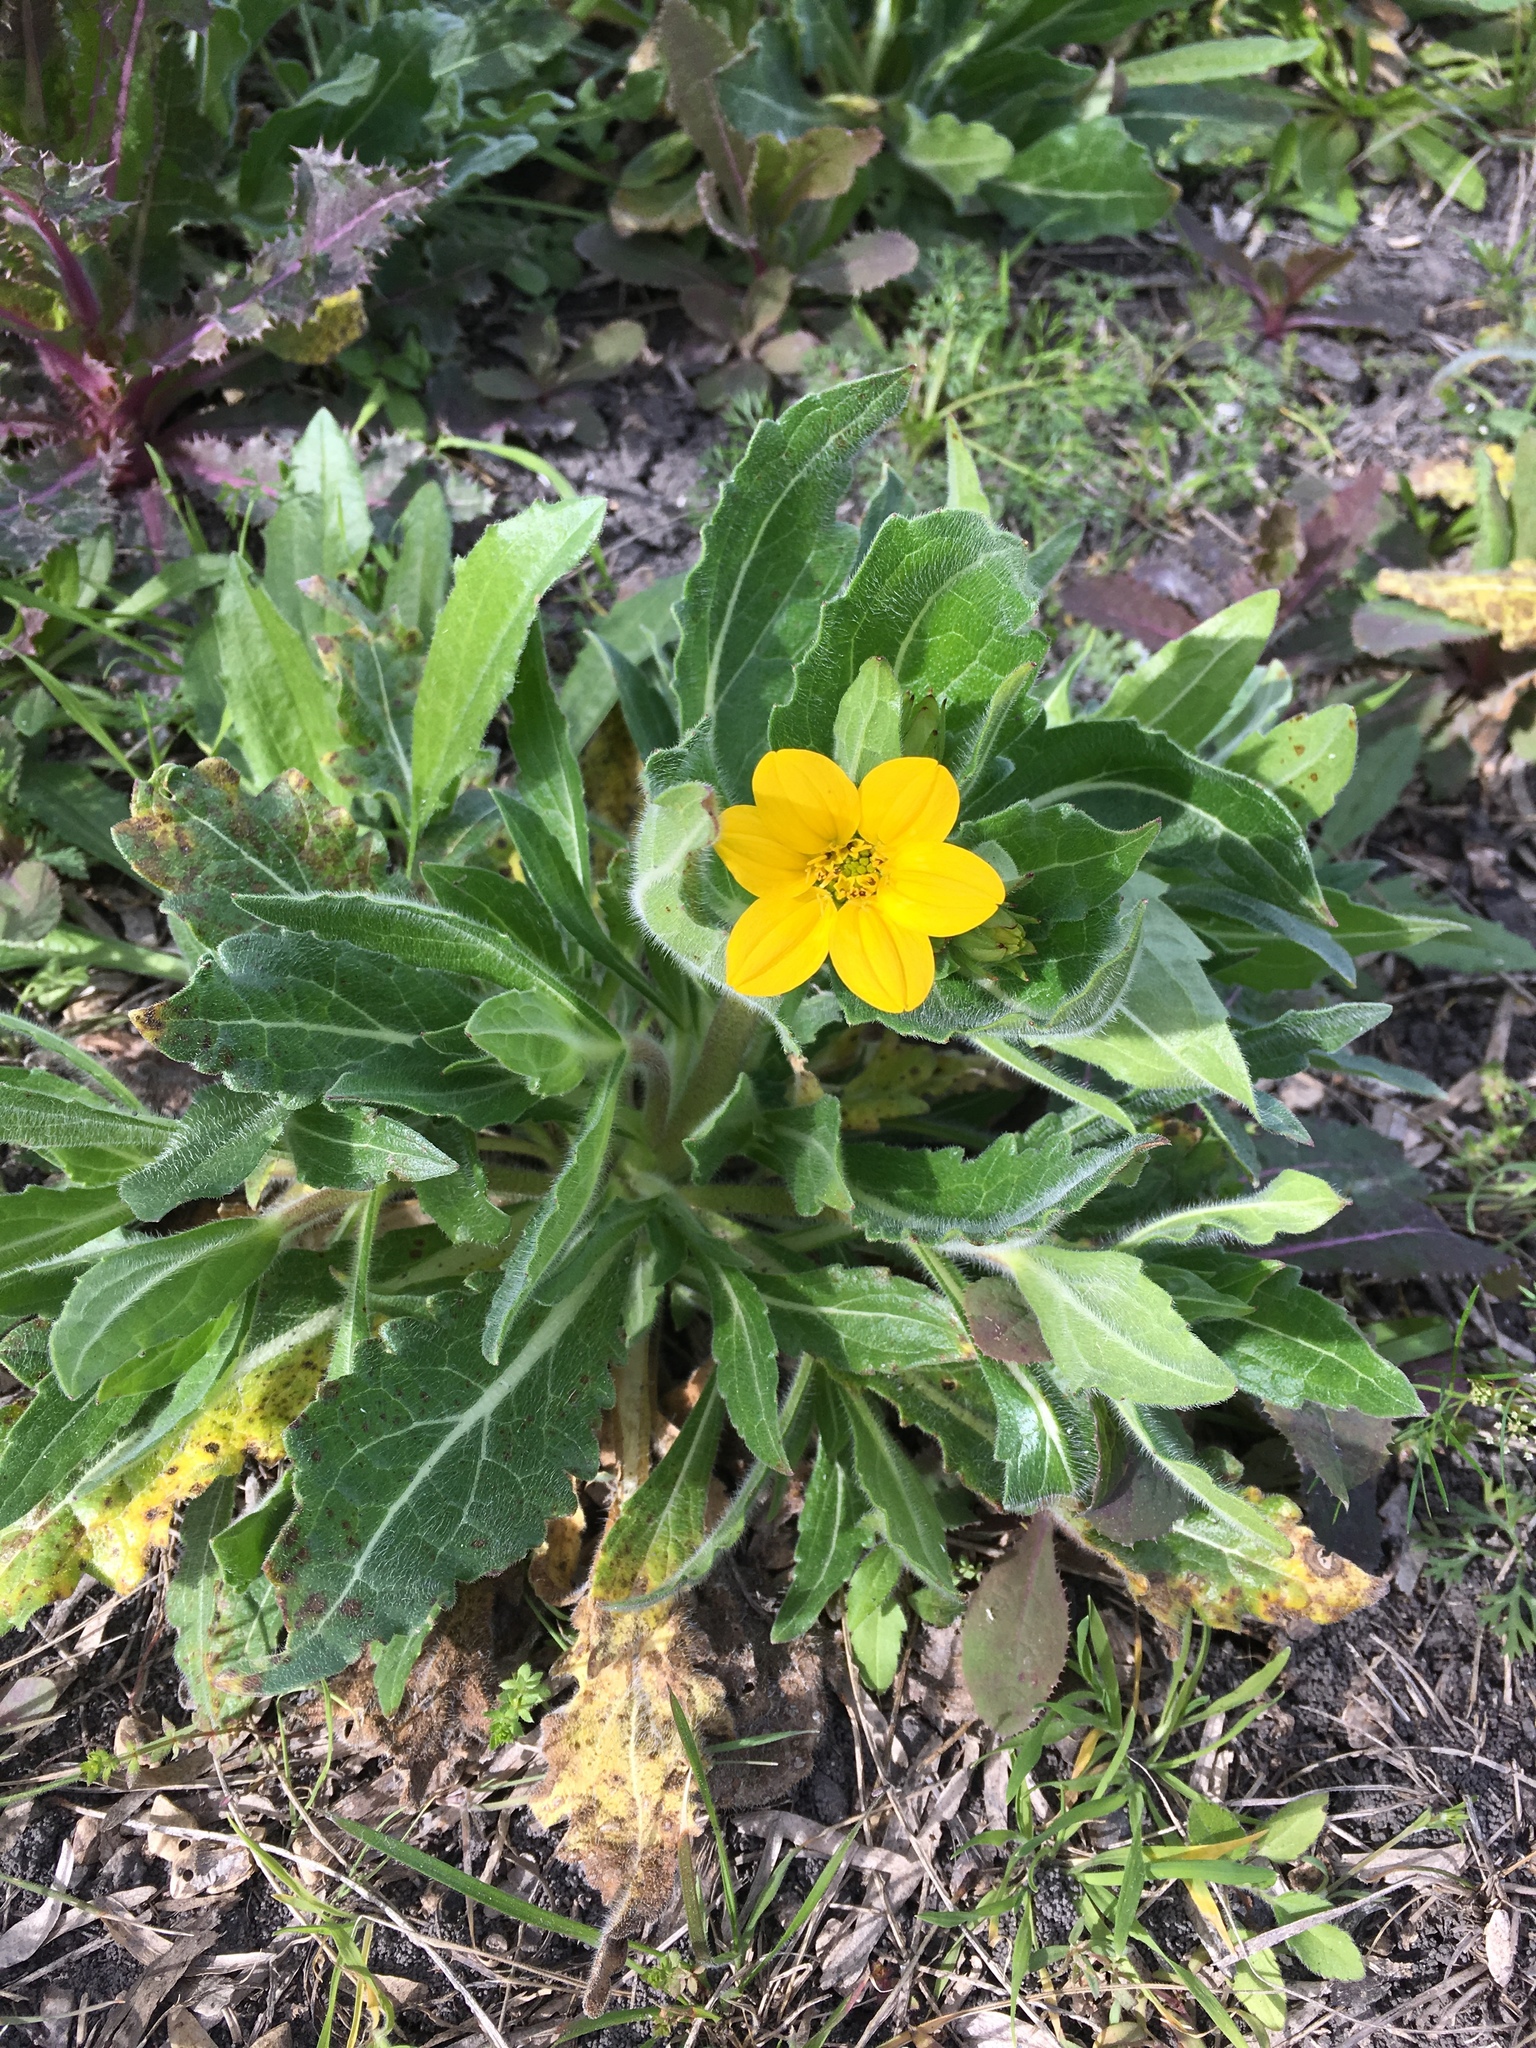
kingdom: Plantae
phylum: Tracheophyta
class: Magnoliopsida
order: Asterales
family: Asteraceae
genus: Lindheimera
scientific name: Lindheimera texana
